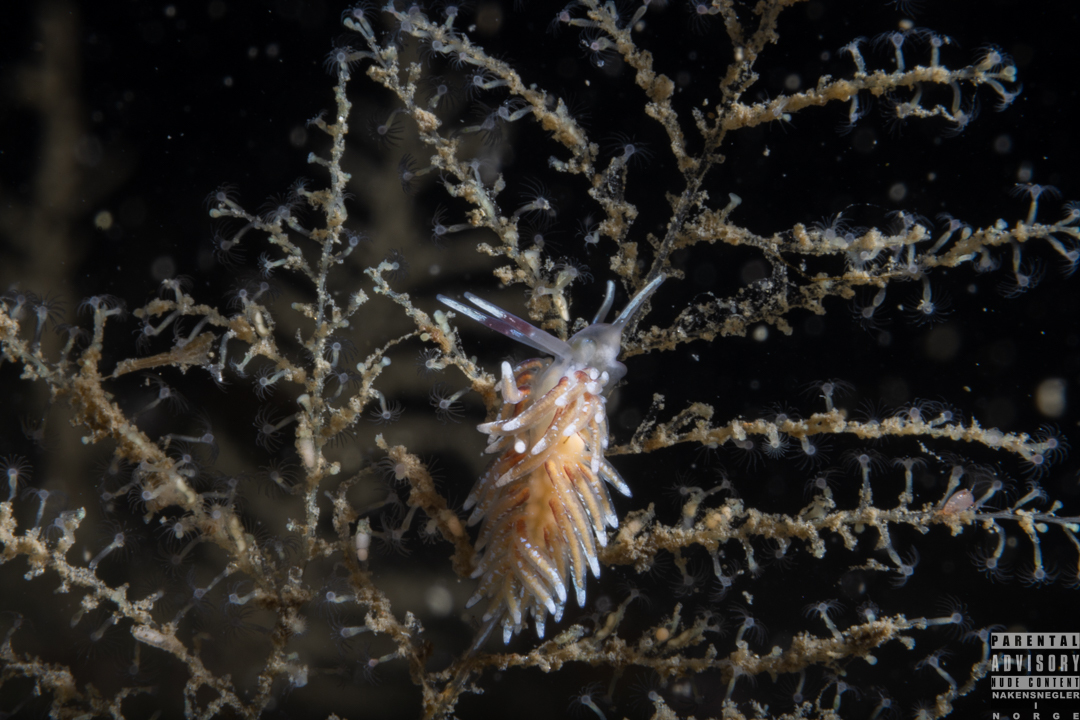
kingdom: Animalia
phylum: Mollusca
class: Gastropoda
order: Nudibranchia
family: Trinchesiidae
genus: Rubramoena
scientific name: Rubramoena rubescens
